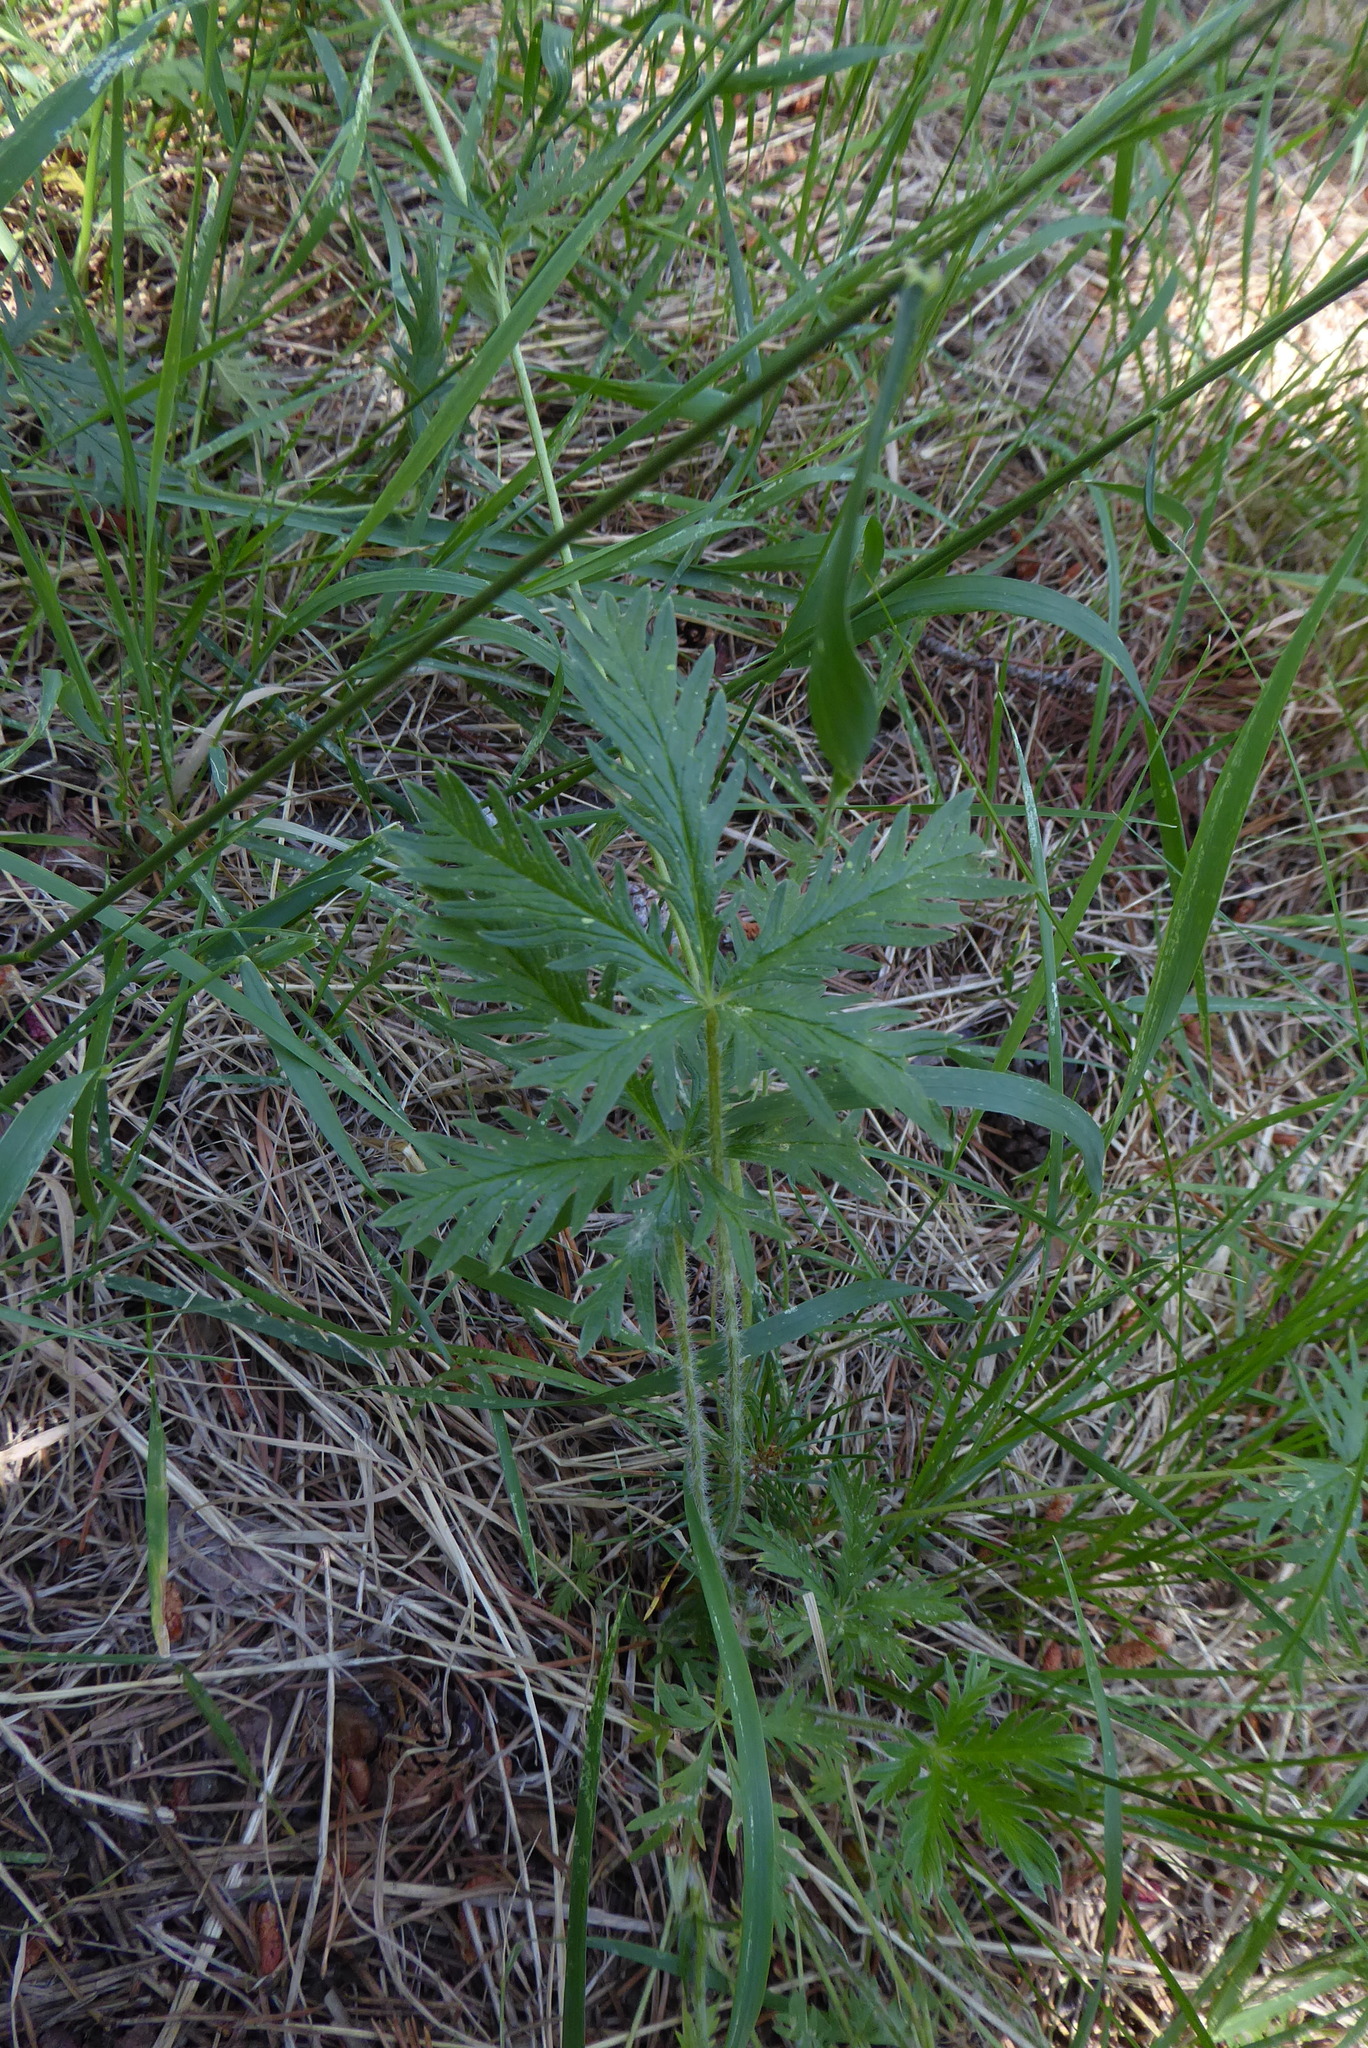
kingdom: Plantae
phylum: Tracheophyta
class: Magnoliopsida
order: Rosales
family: Rosaceae
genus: Potentilla
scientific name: Potentilla gracilis
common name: Graceful cinquefoil
